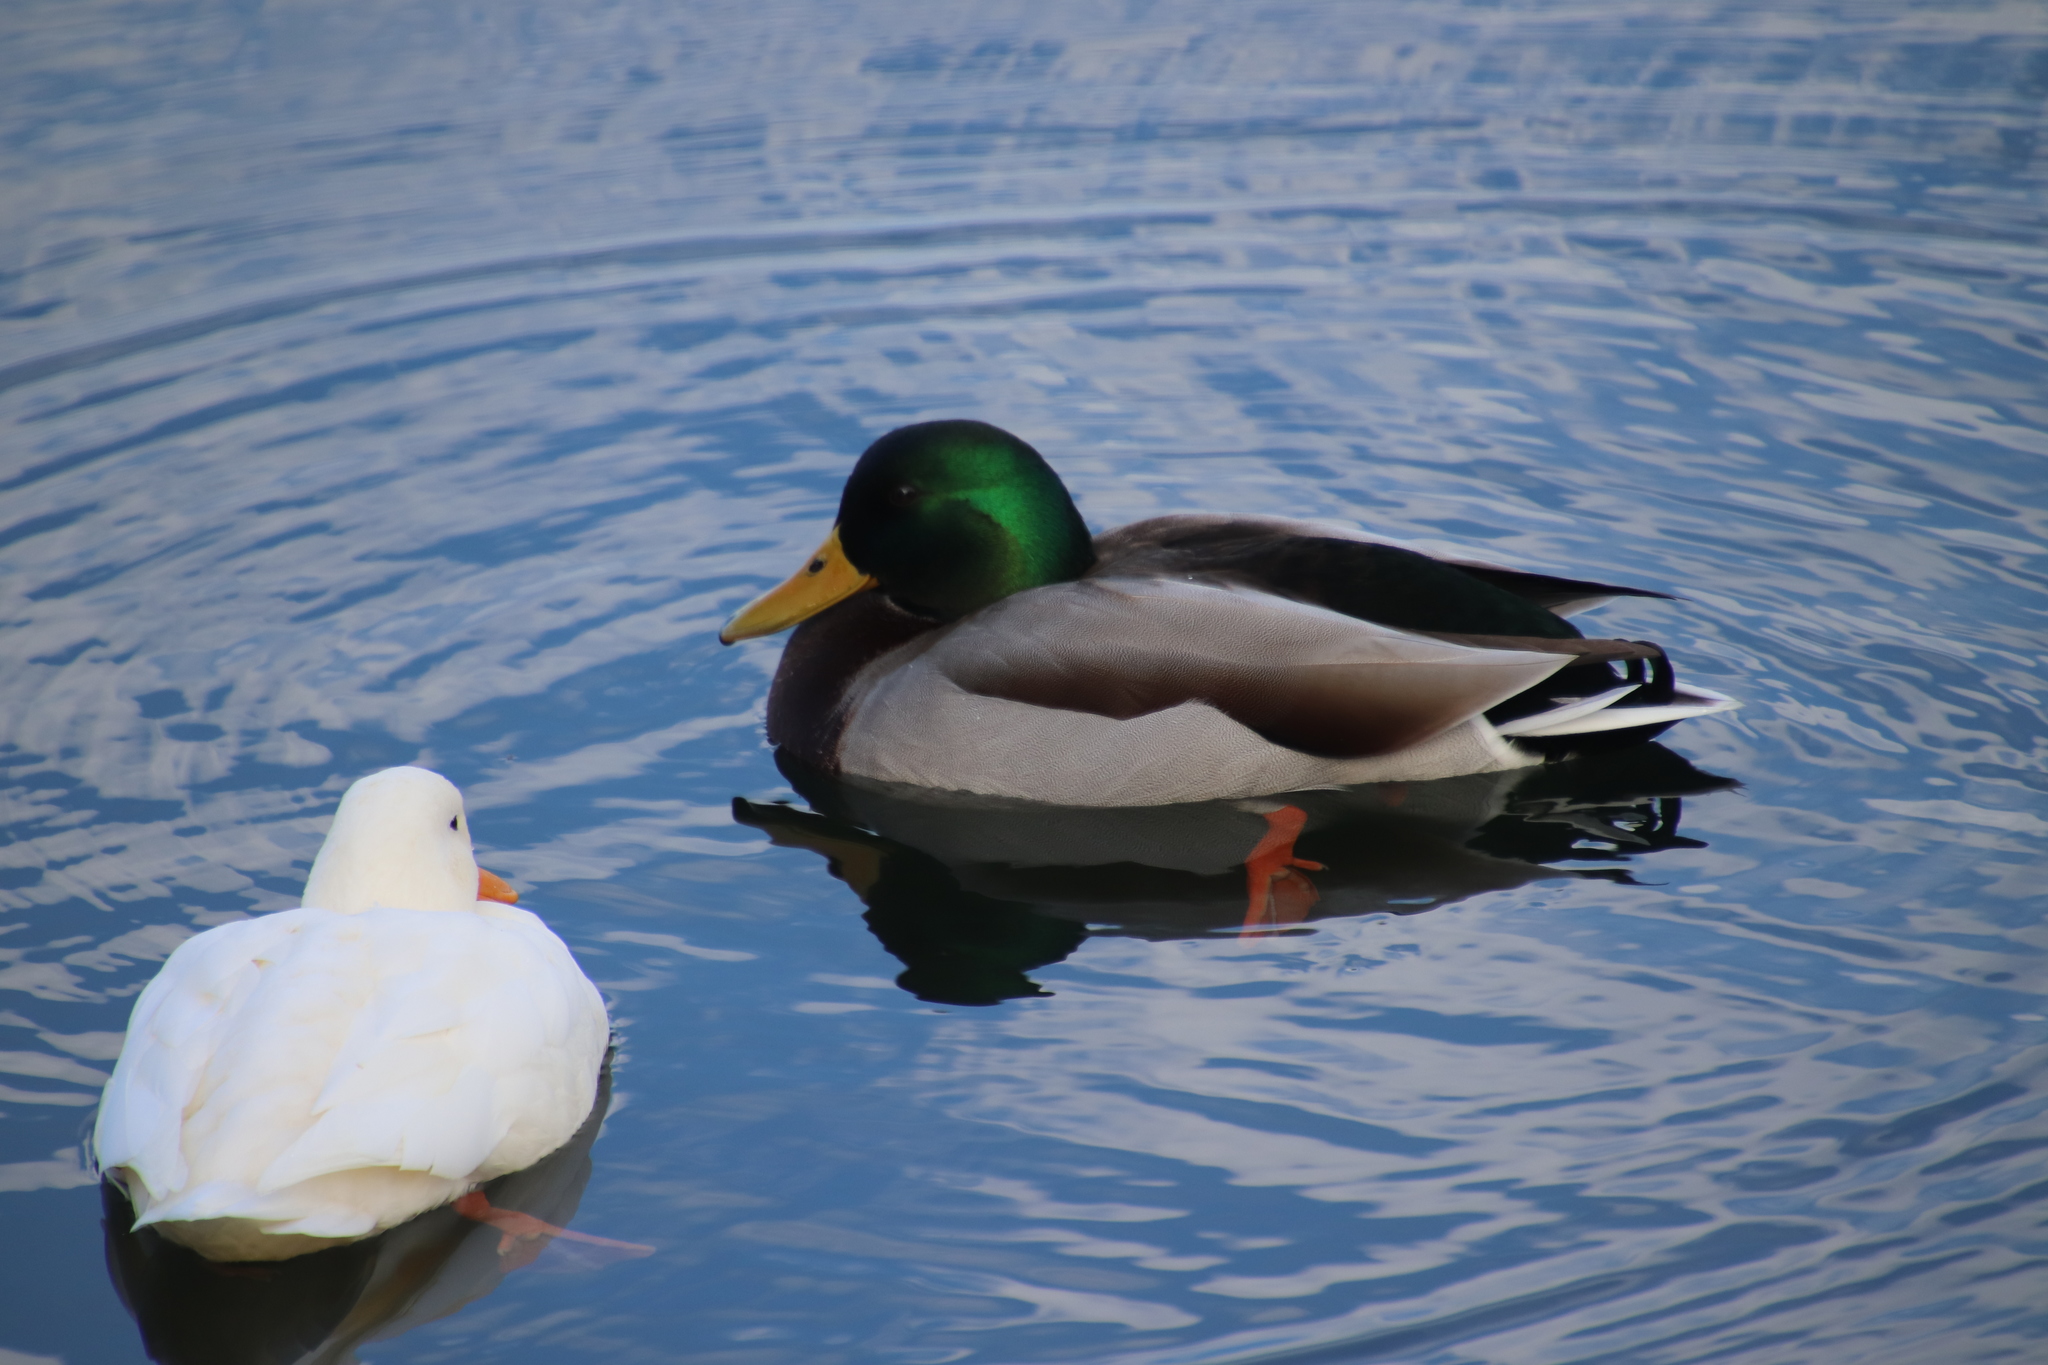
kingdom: Animalia
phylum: Chordata
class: Aves
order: Anseriformes
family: Anatidae
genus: Anas
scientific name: Anas platyrhynchos
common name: Mallard
